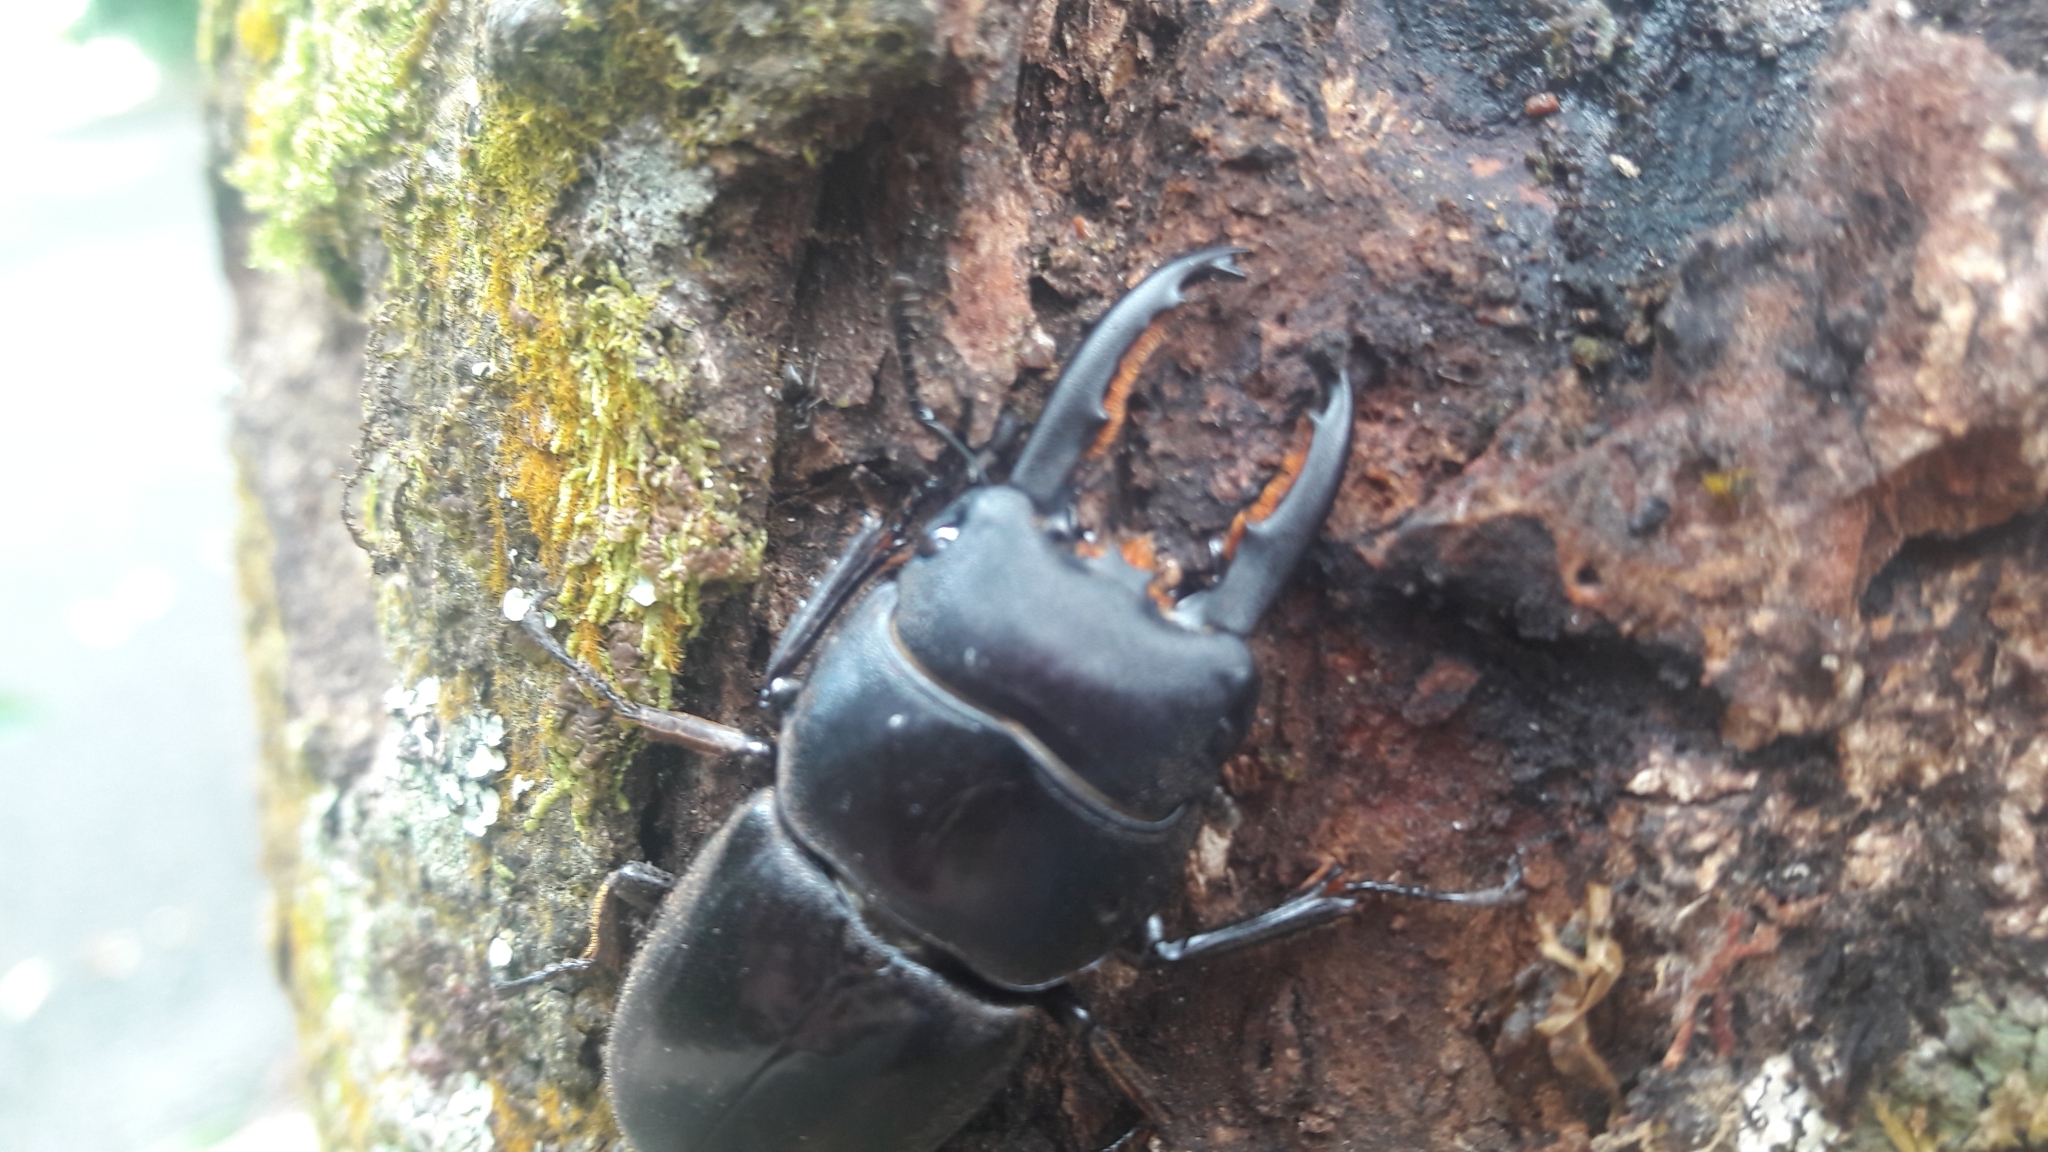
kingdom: Animalia
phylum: Arthropoda
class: Insecta
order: Coleoptera
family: Lucanidae
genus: Serrognathus
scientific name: Serrognathus taurus
